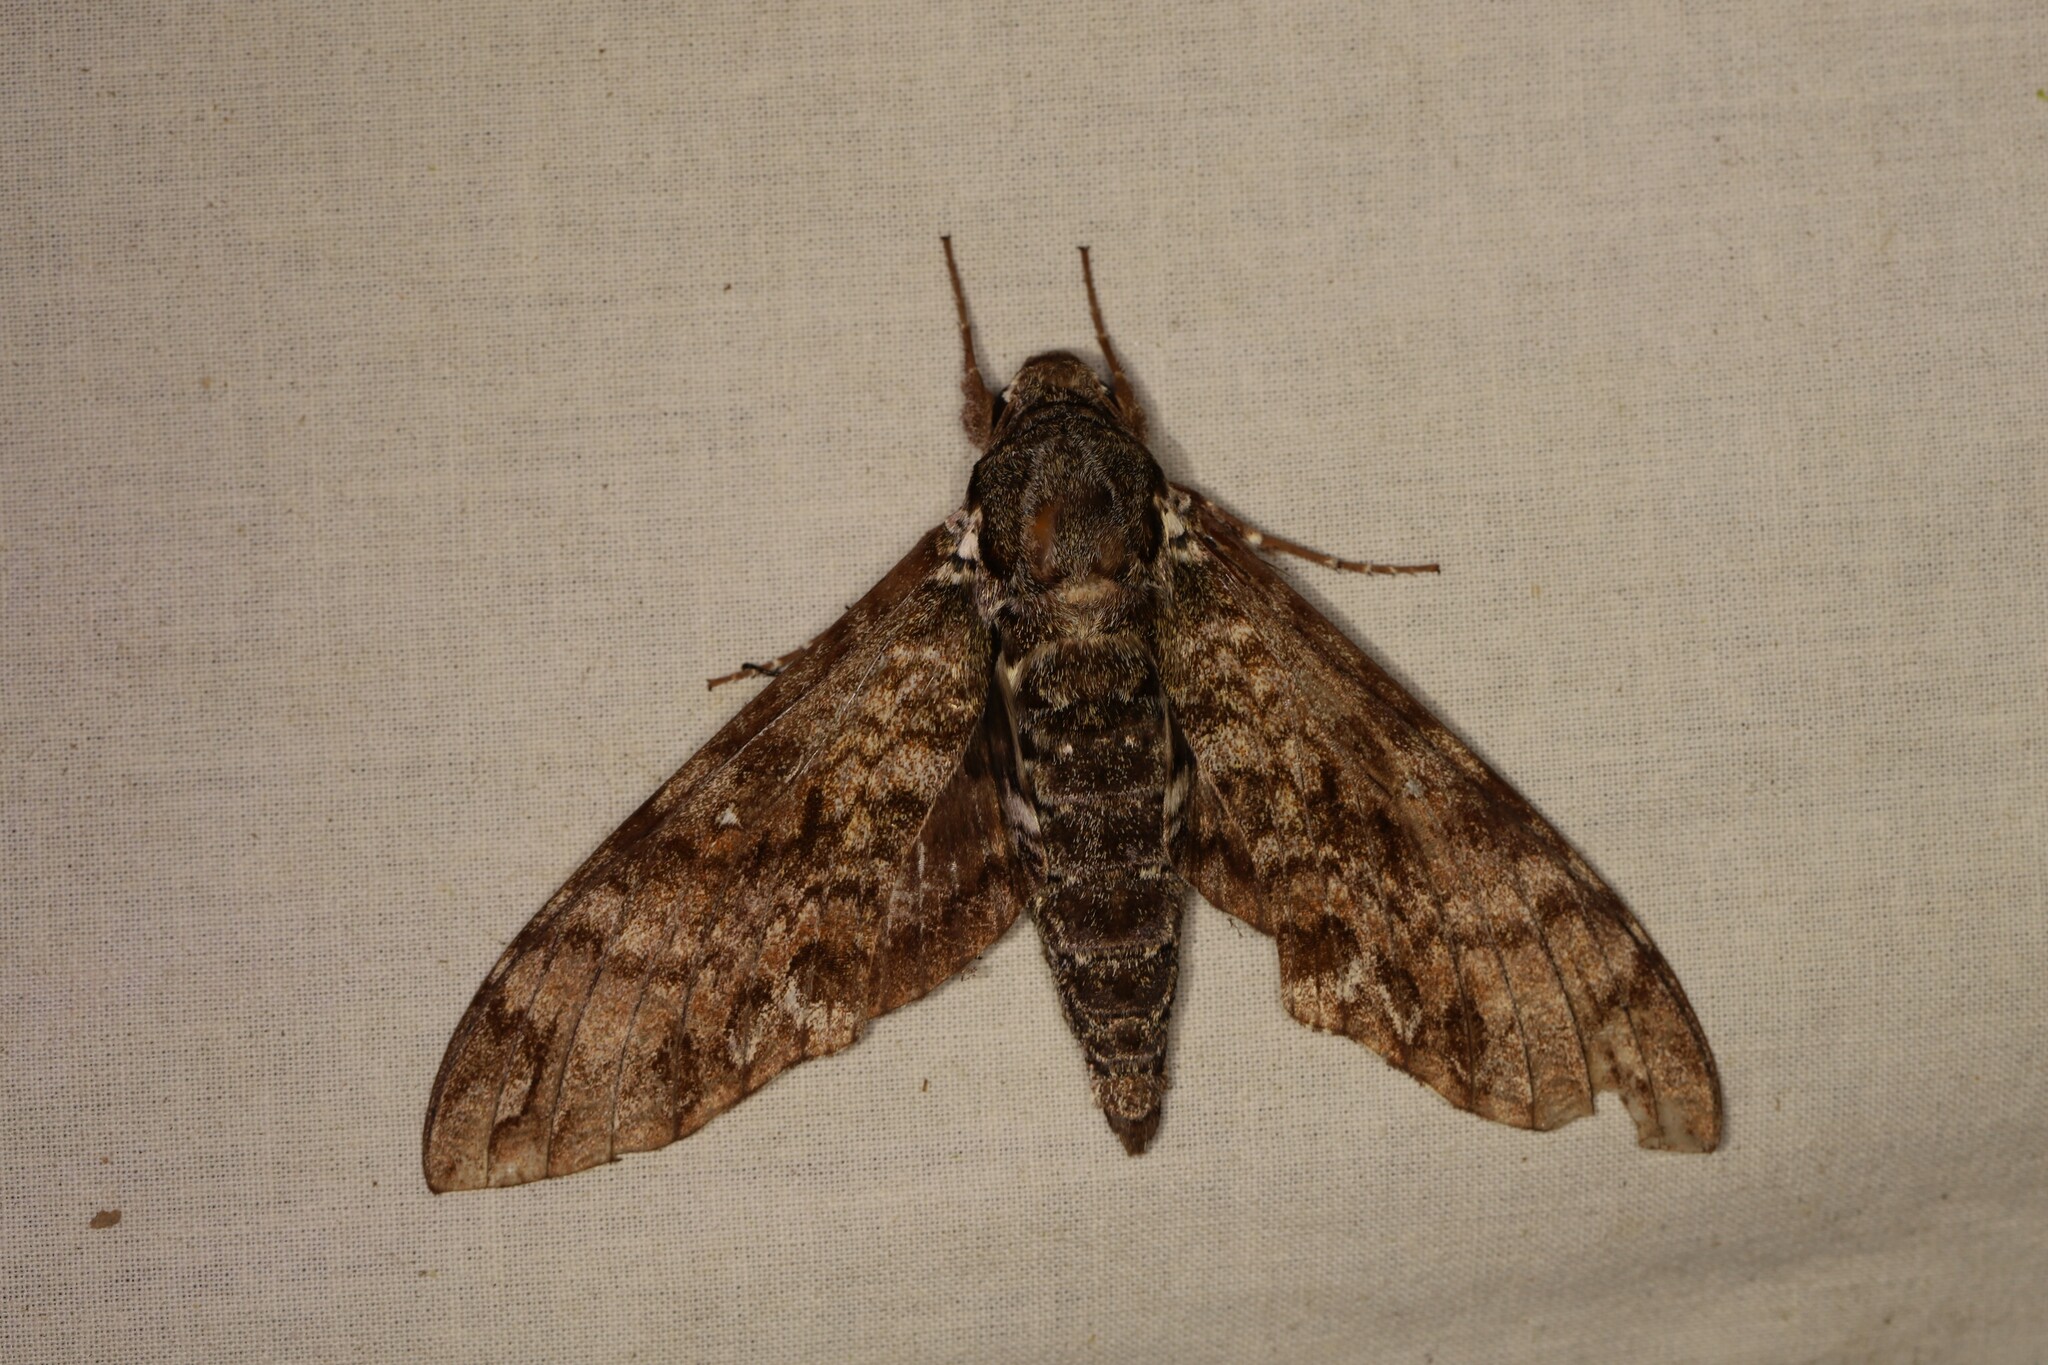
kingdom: Animalia
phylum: Arthropoda
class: Insecta
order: Lepidoptera
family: Sphingidae
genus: Manduca
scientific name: Manduca corallina
